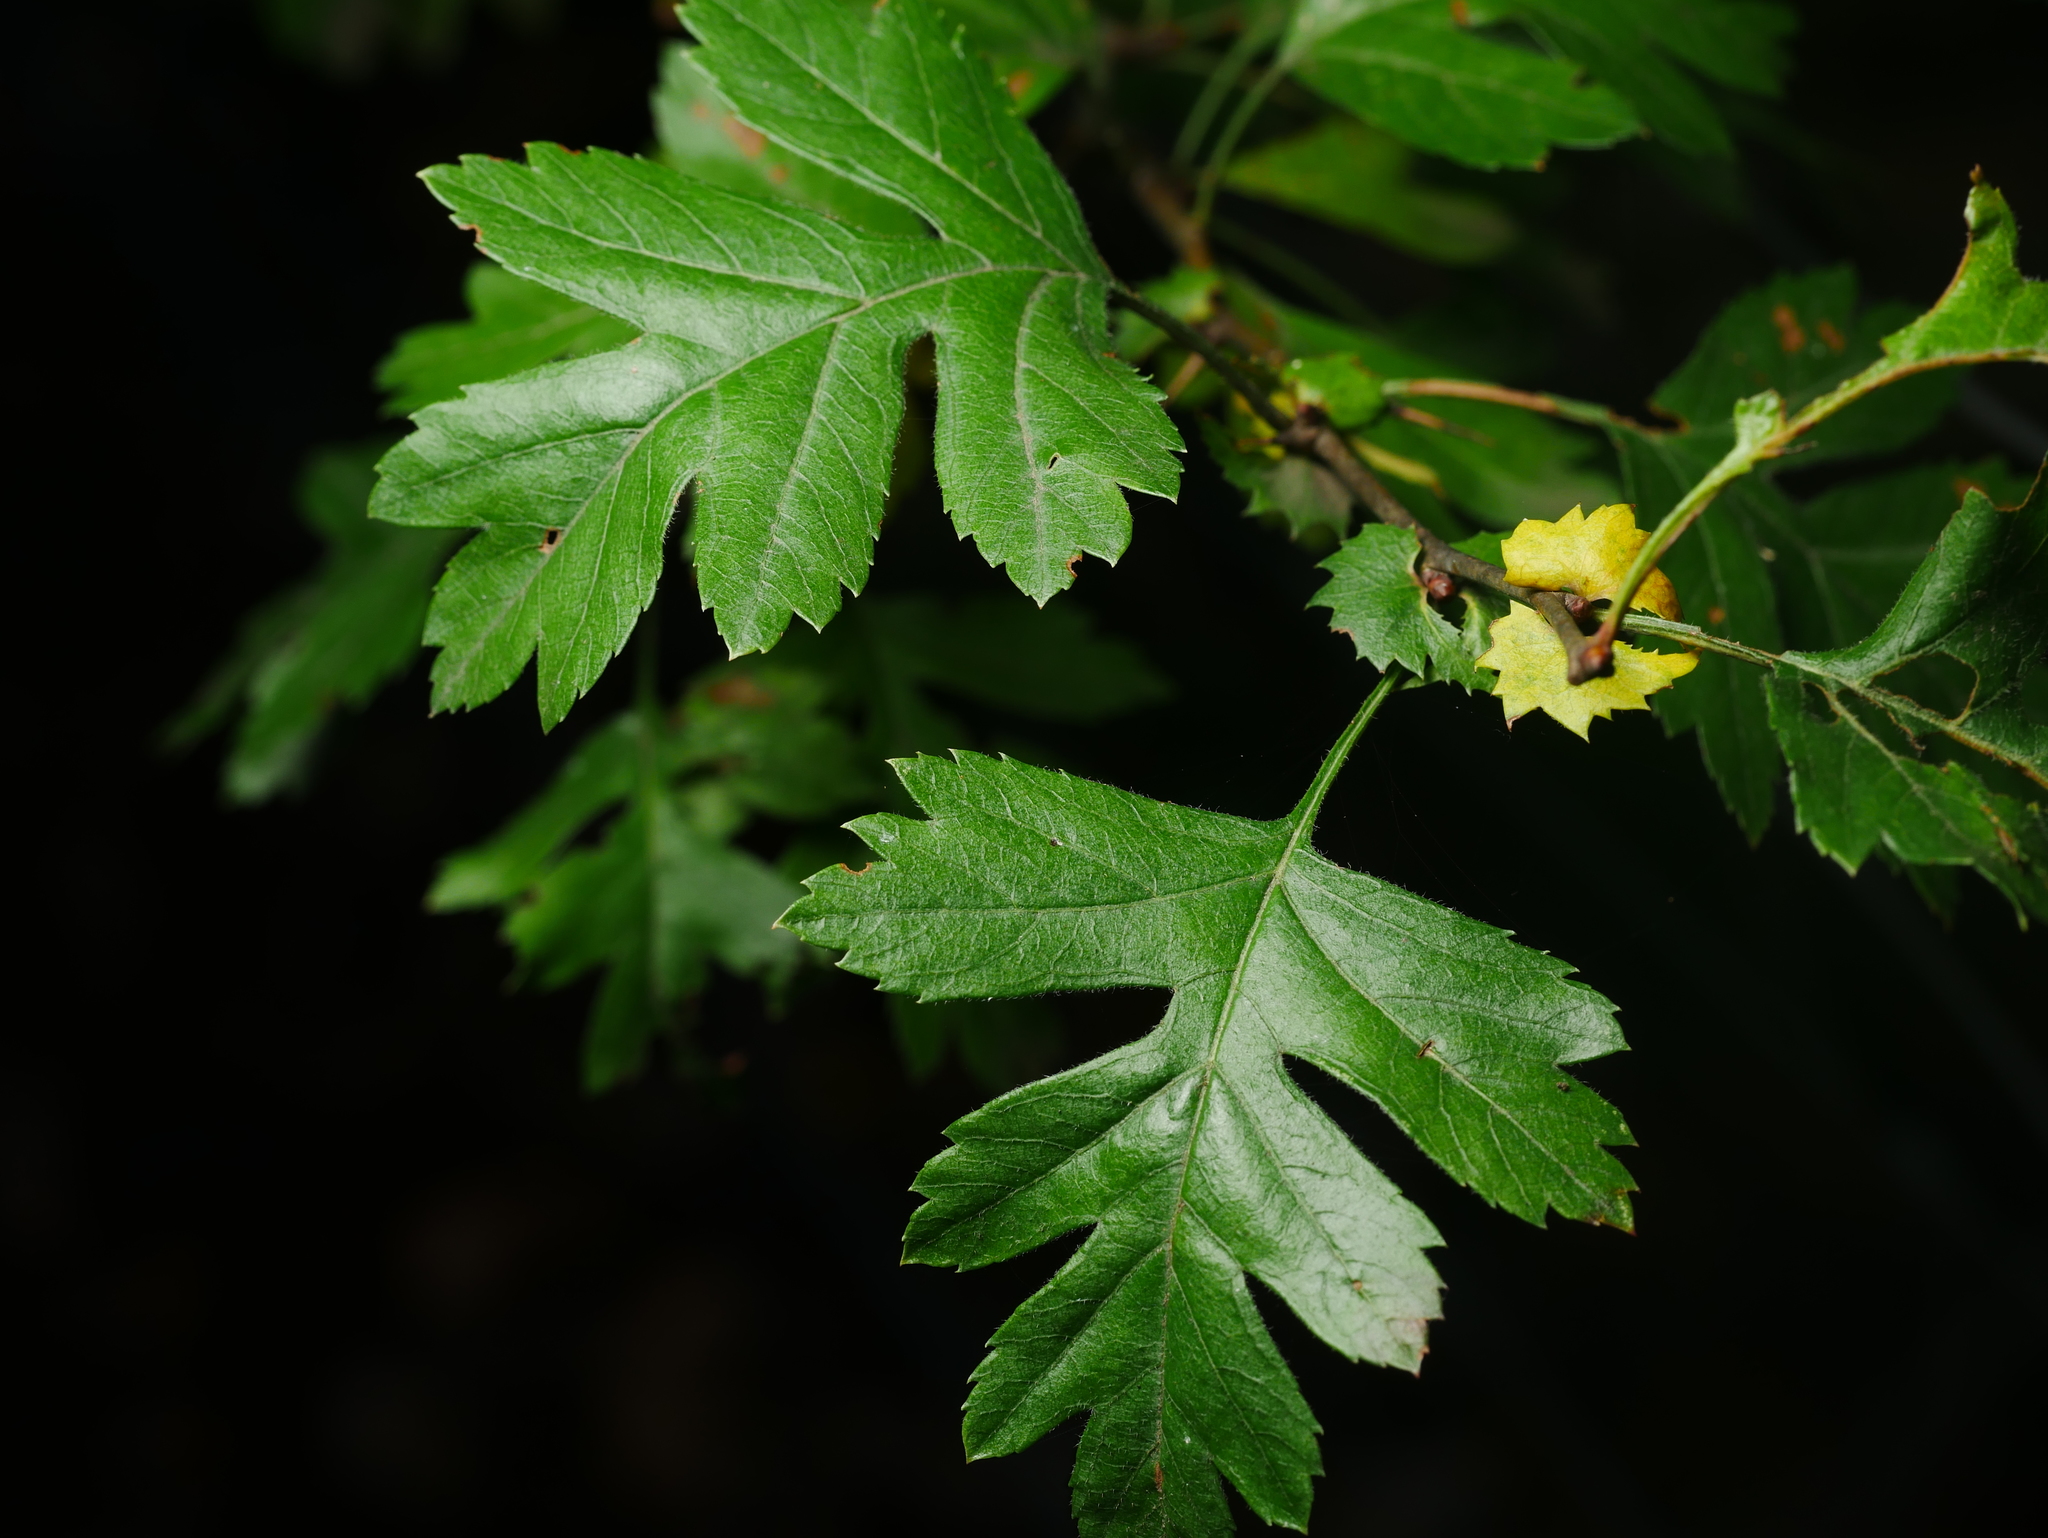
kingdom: Plantae
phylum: Tracheophyta
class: Magnoliopsida
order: Rosales
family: Rosaceae
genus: Crataegus
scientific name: Crataegus monogyna
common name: Hawthorn
